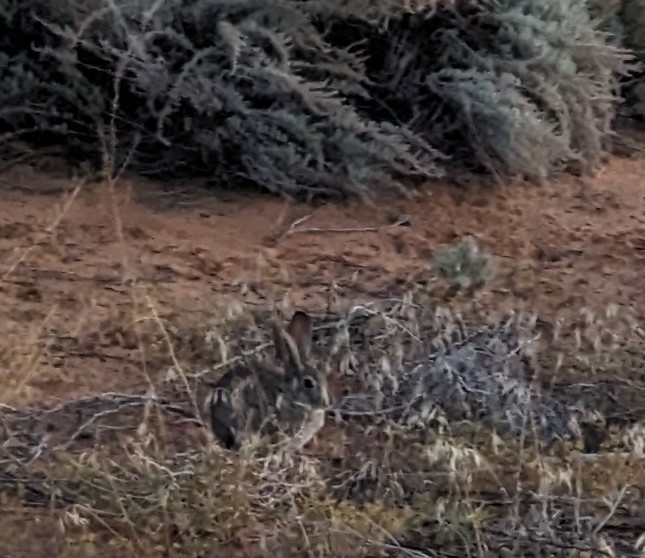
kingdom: Animalia
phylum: Chordata
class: Mammalia
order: Lagomorpha
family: Leporidae
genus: Sylvilagus
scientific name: Sylvilagus audubonii
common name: Desert cottontail
